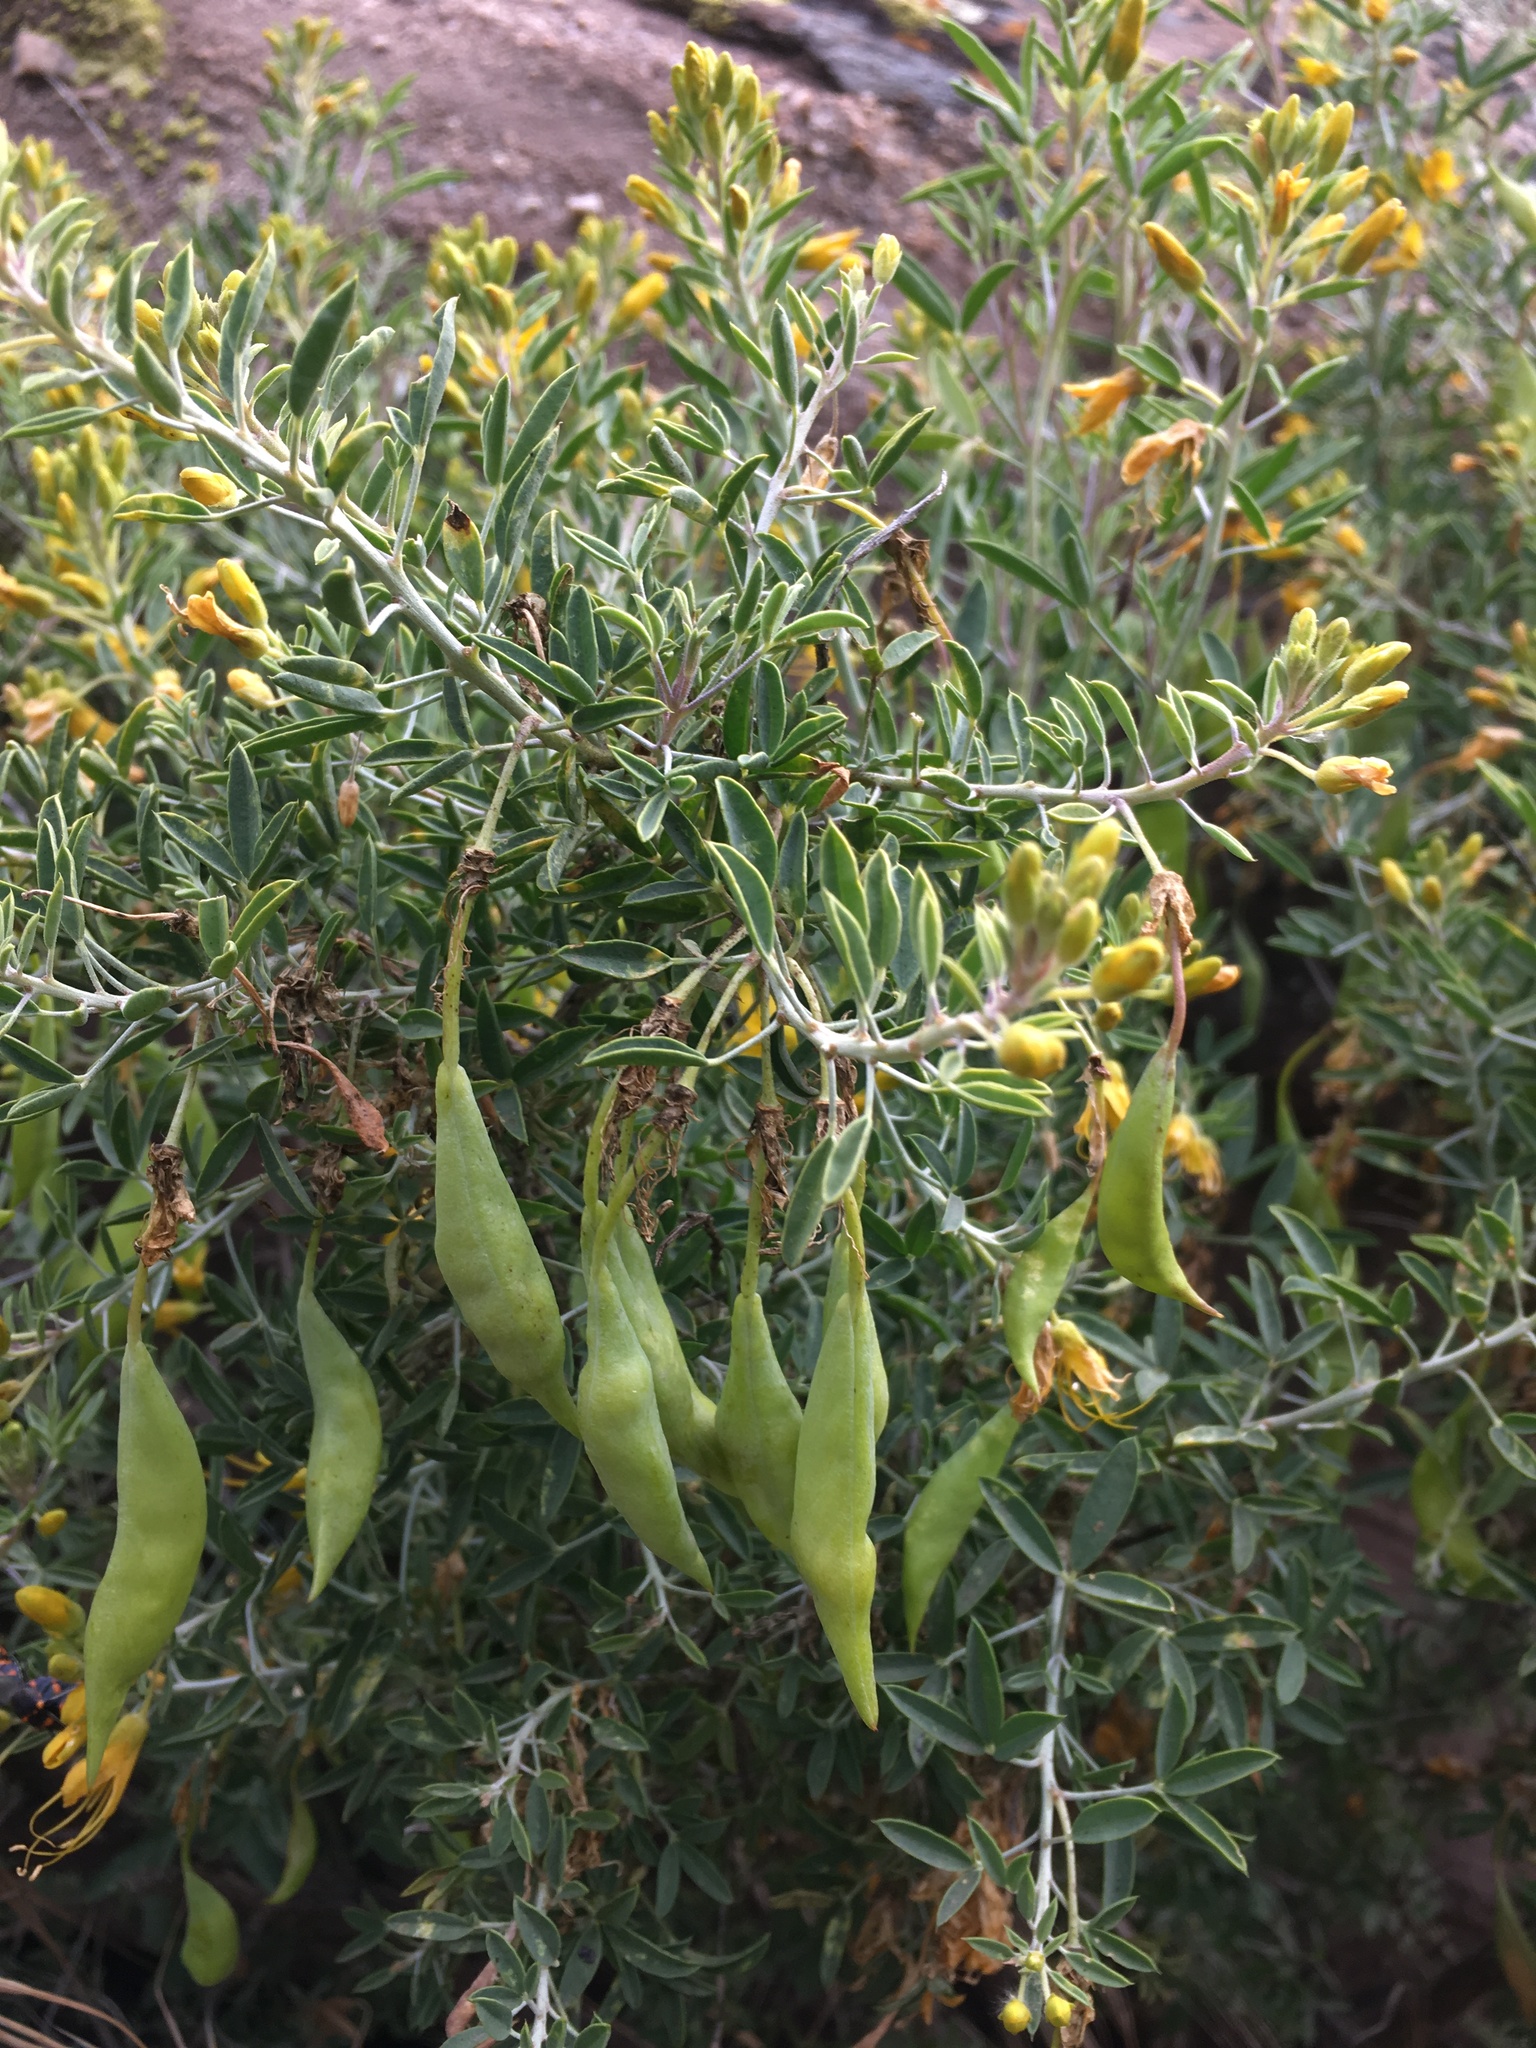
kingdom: Plantae
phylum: Tracheophyta
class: Magnoliopsida
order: Brassicales
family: Cleomaceae
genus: Cleomella
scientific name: Cleomella arborea
